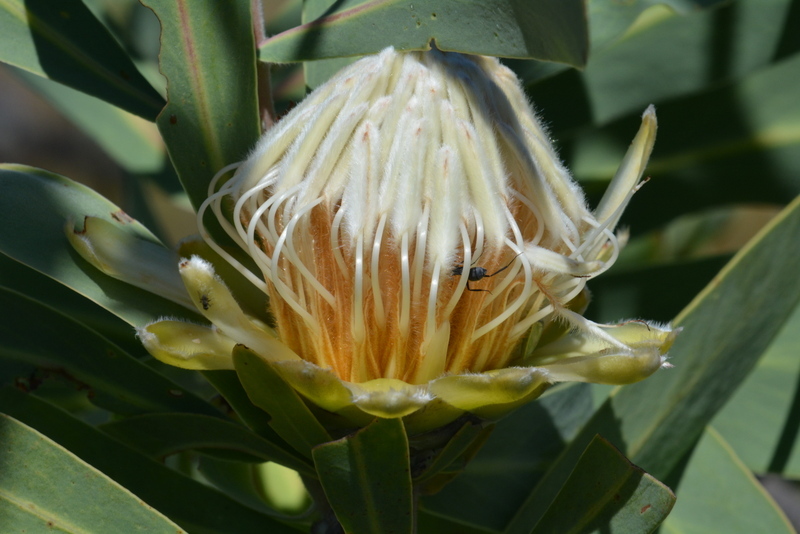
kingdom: Plantae
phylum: Tracheophyta
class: Magnoliopsida
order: Proteales
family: Proteaceae
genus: Protea
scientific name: Protea gaguedi
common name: African protea
